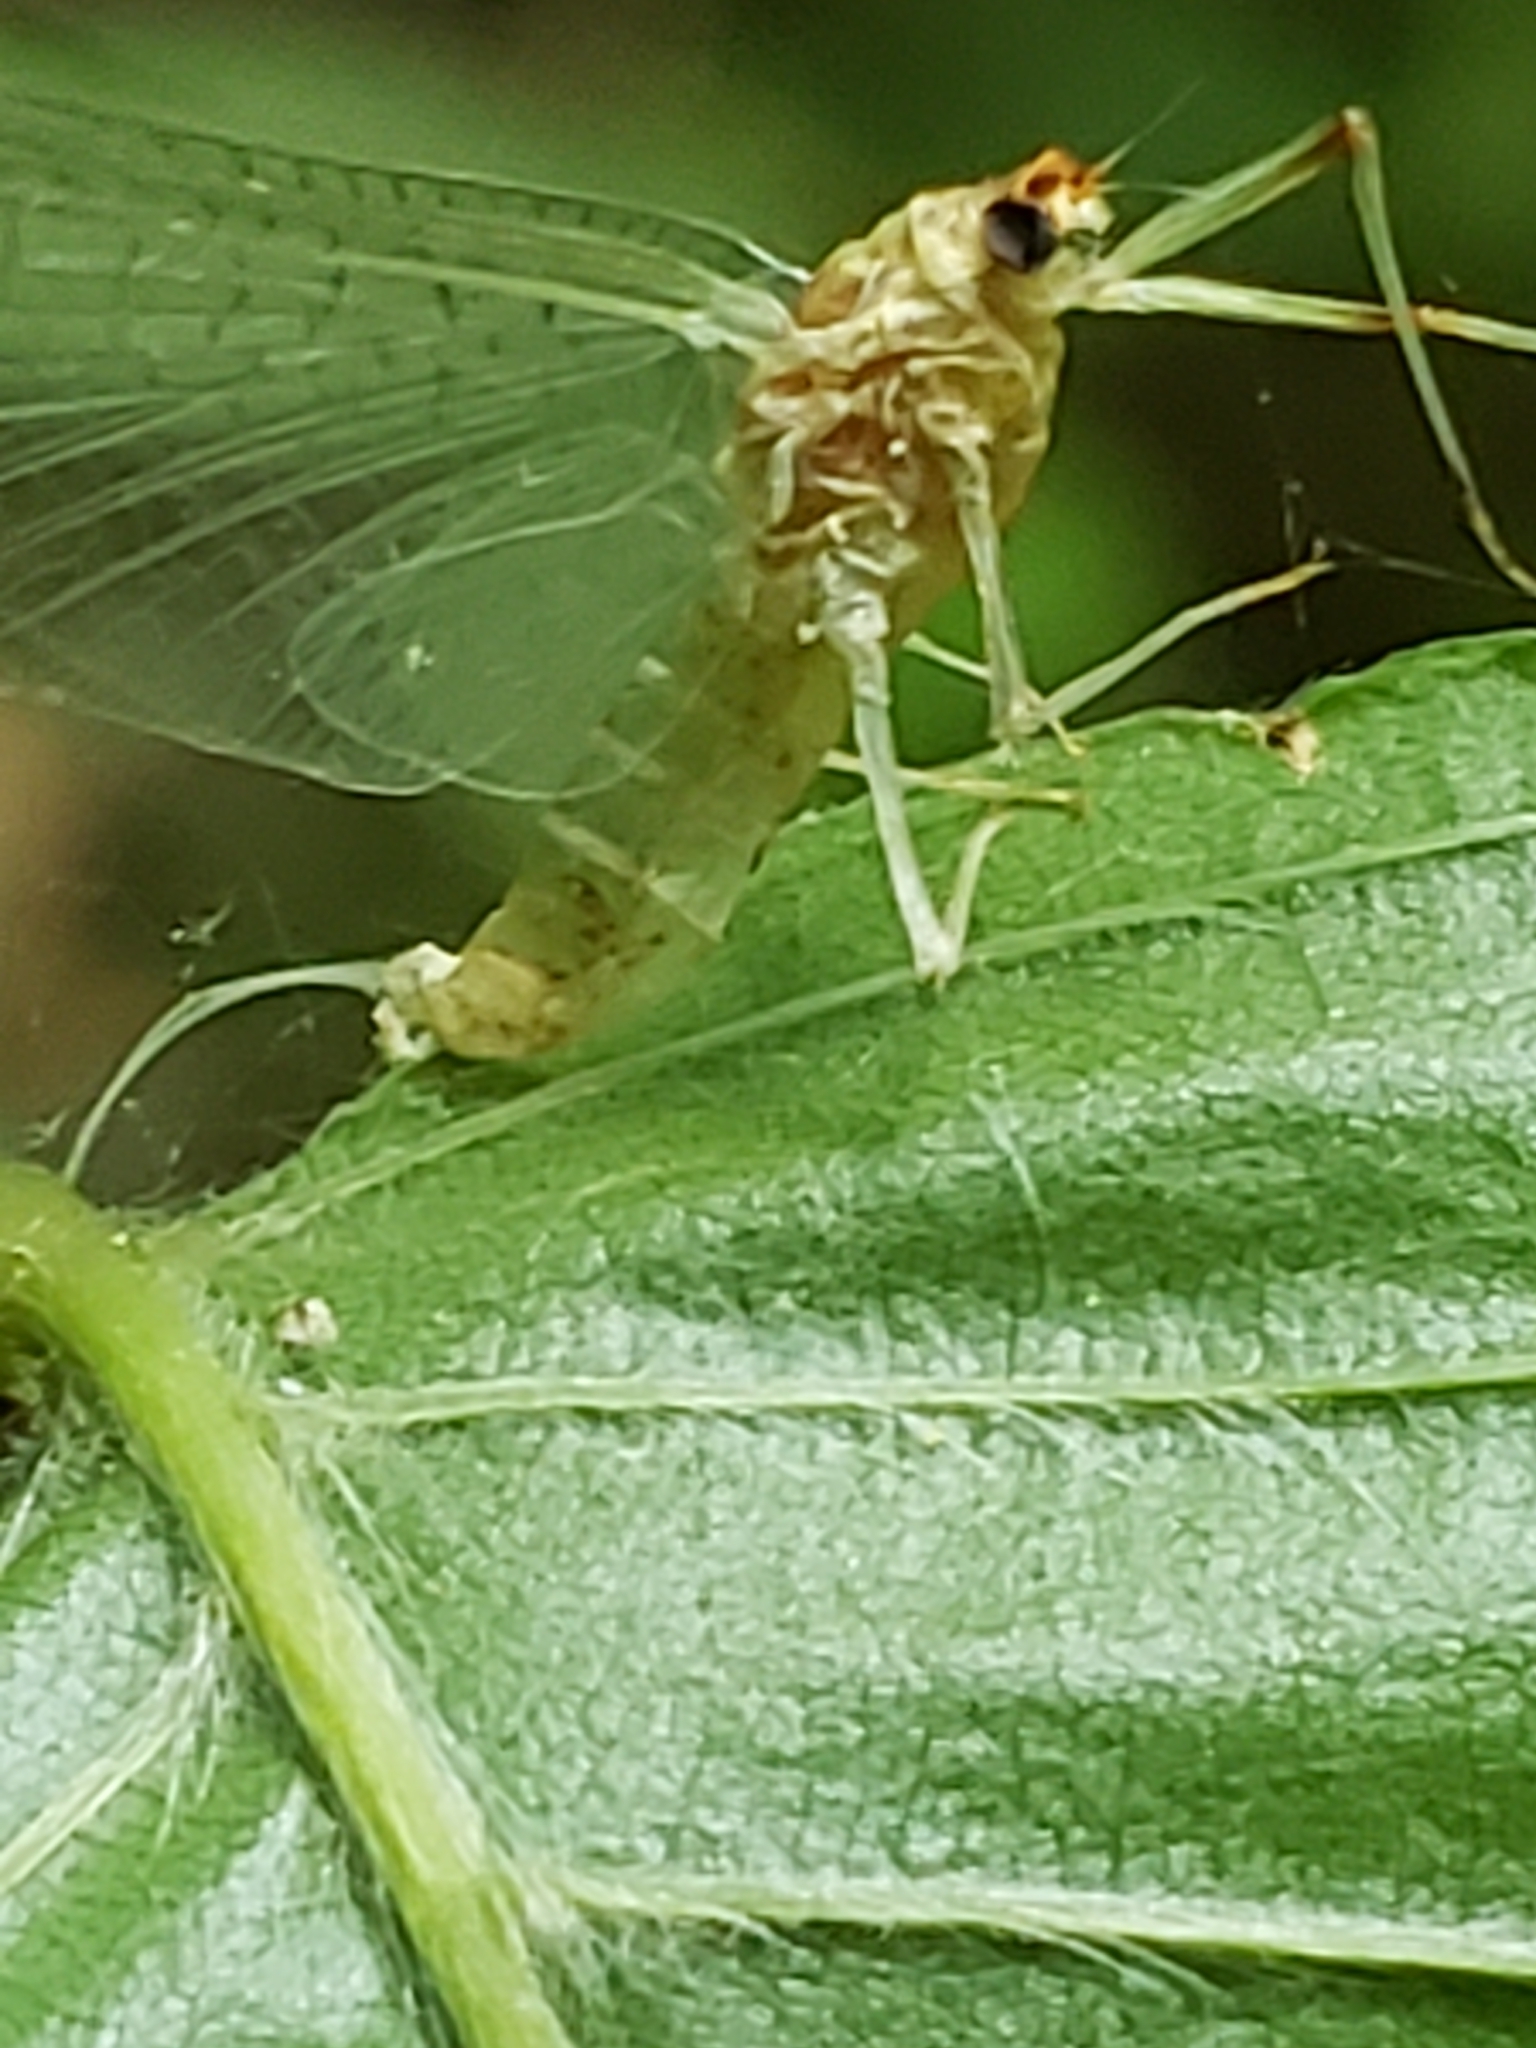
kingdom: Animalia
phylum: Arthropoda
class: Insecta
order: Ephemeroptera
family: Heptageniidae
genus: Heptagenia
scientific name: Heptagenia solitaria
